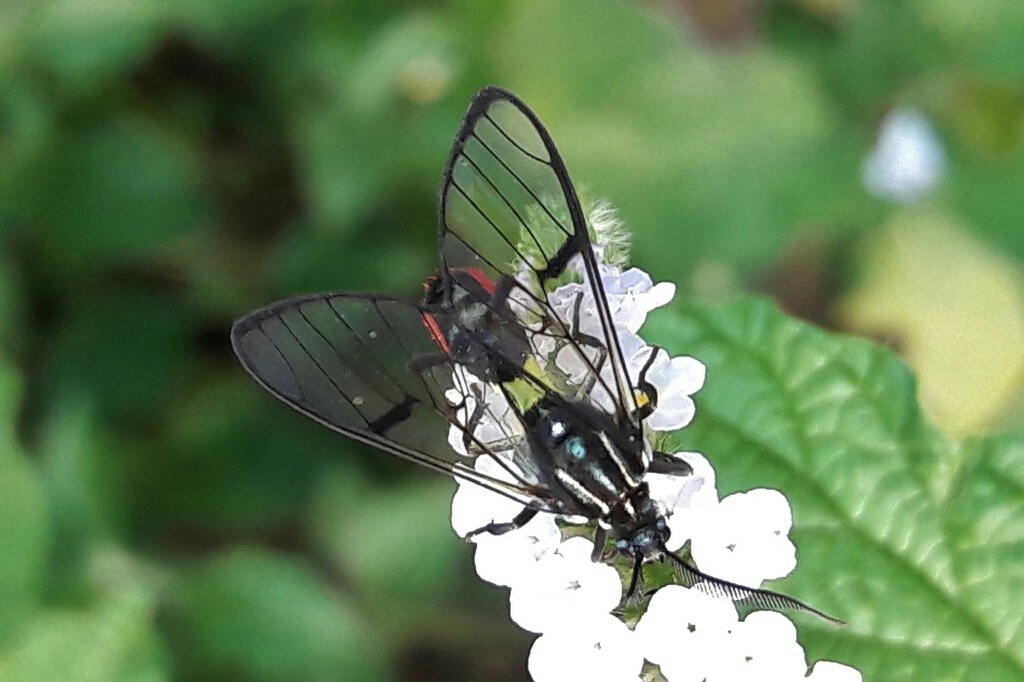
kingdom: Animalia
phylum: Arthropoda
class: Insecta
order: Lepidoptera
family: Erebidae
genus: Argyroeides
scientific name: Argyroeides ophion
